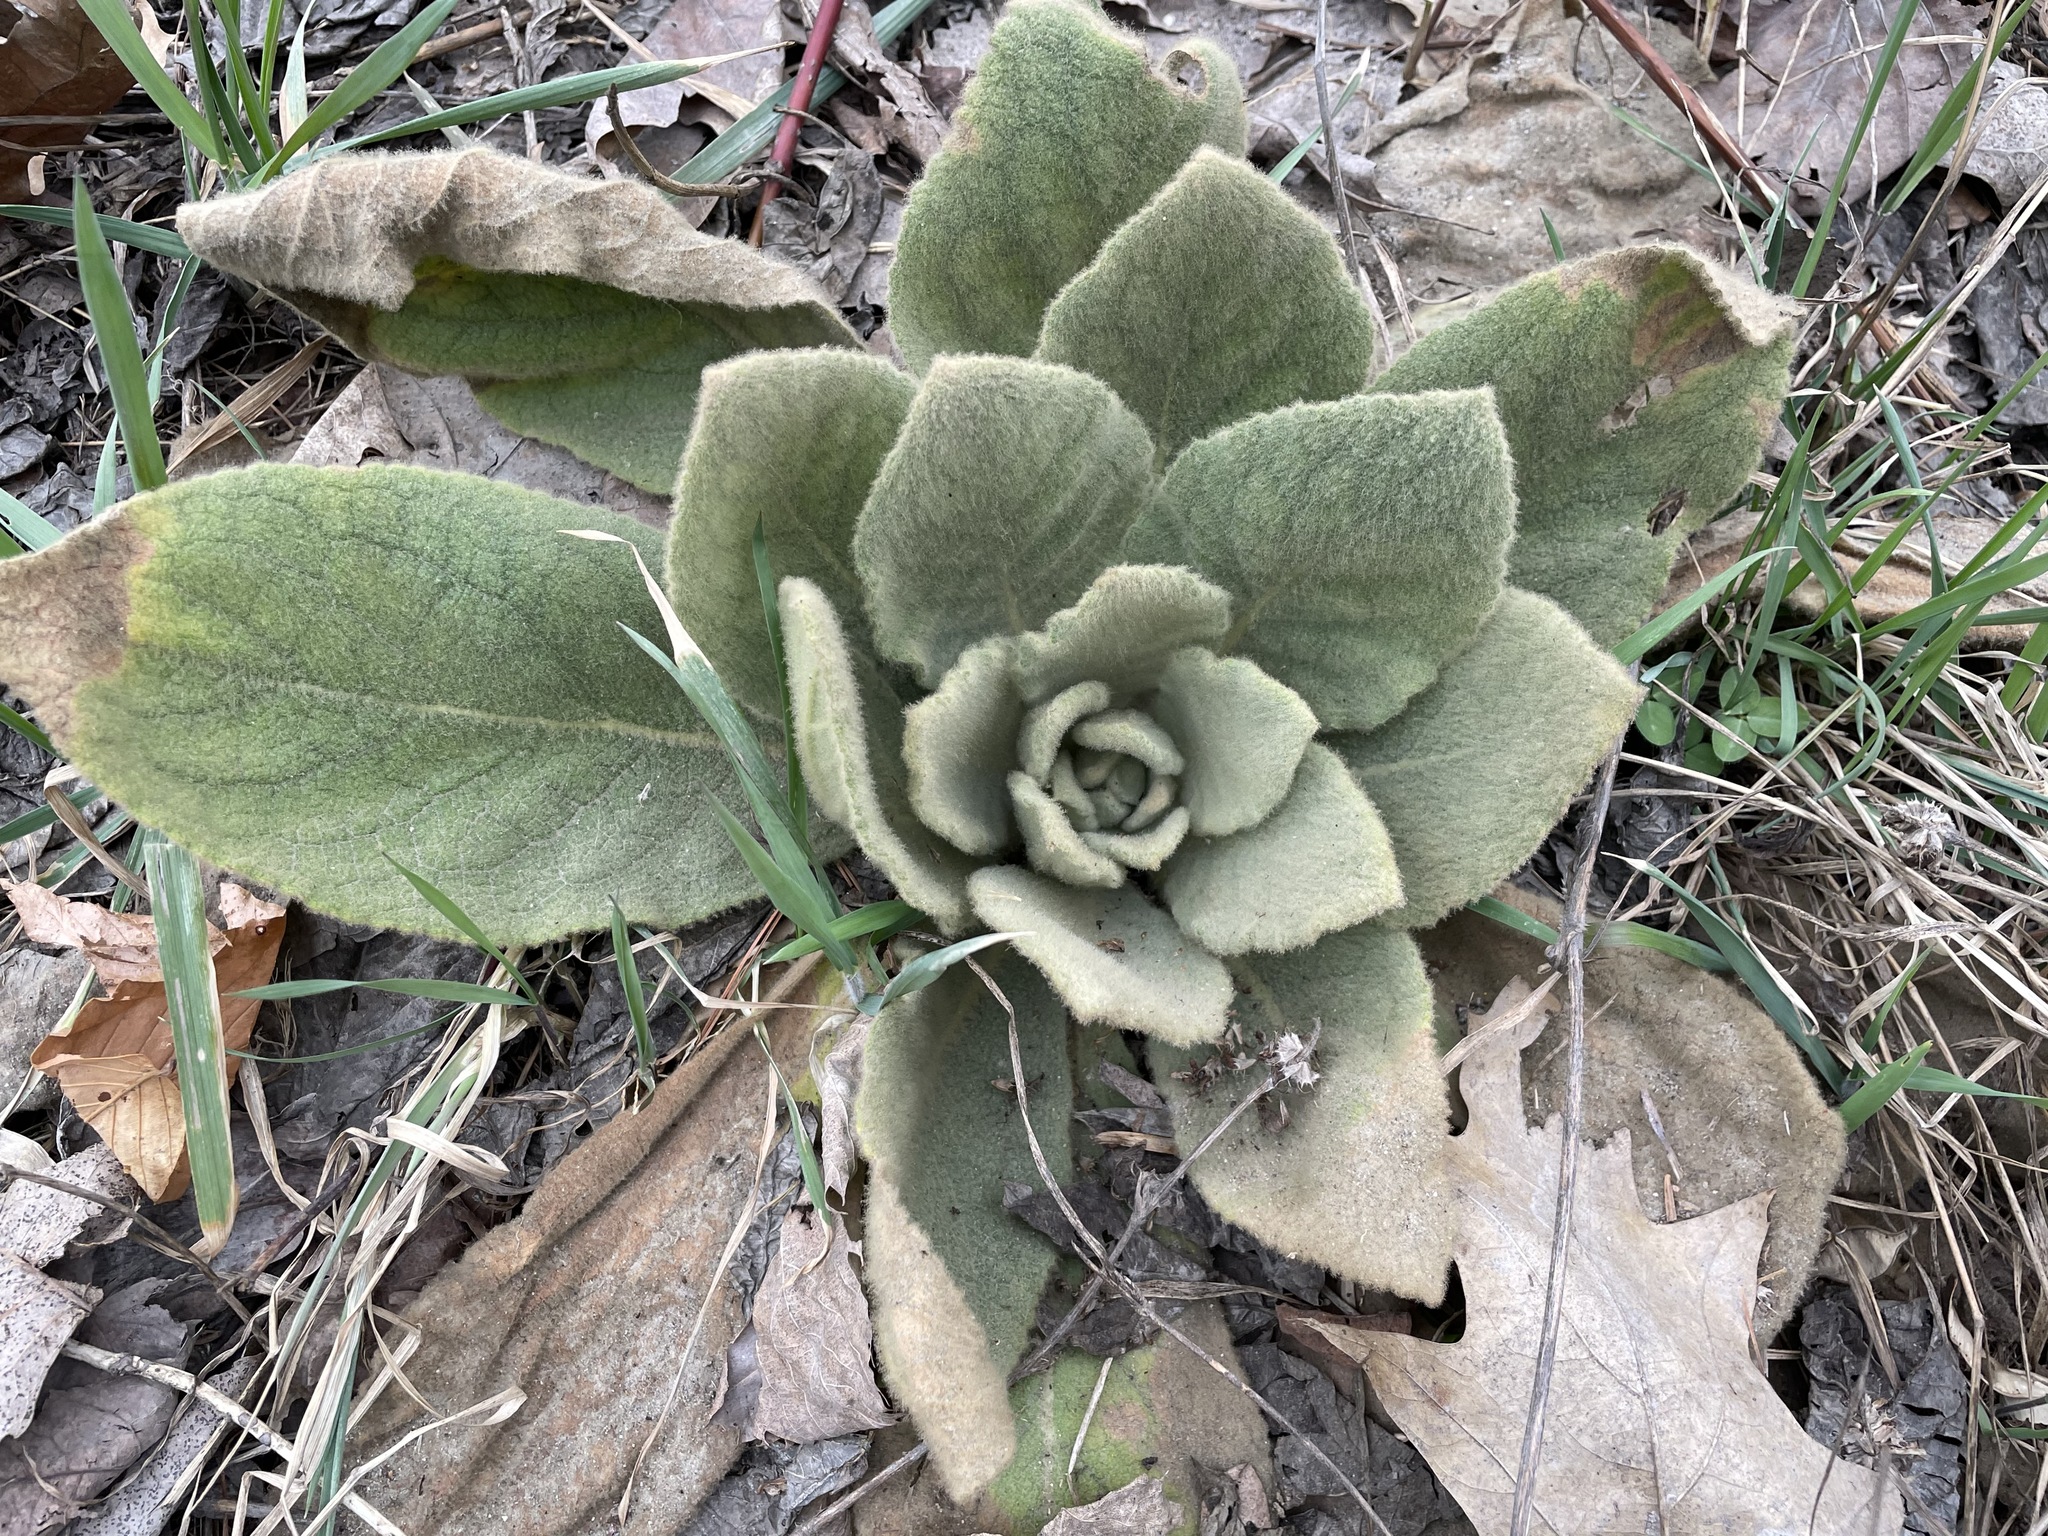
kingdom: Plantae
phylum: Tracheophyta
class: Magnoliopsida
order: Lamiales
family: Scrophulariaceae
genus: Verbascum
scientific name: Verbascum thapsus
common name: Common mullein
